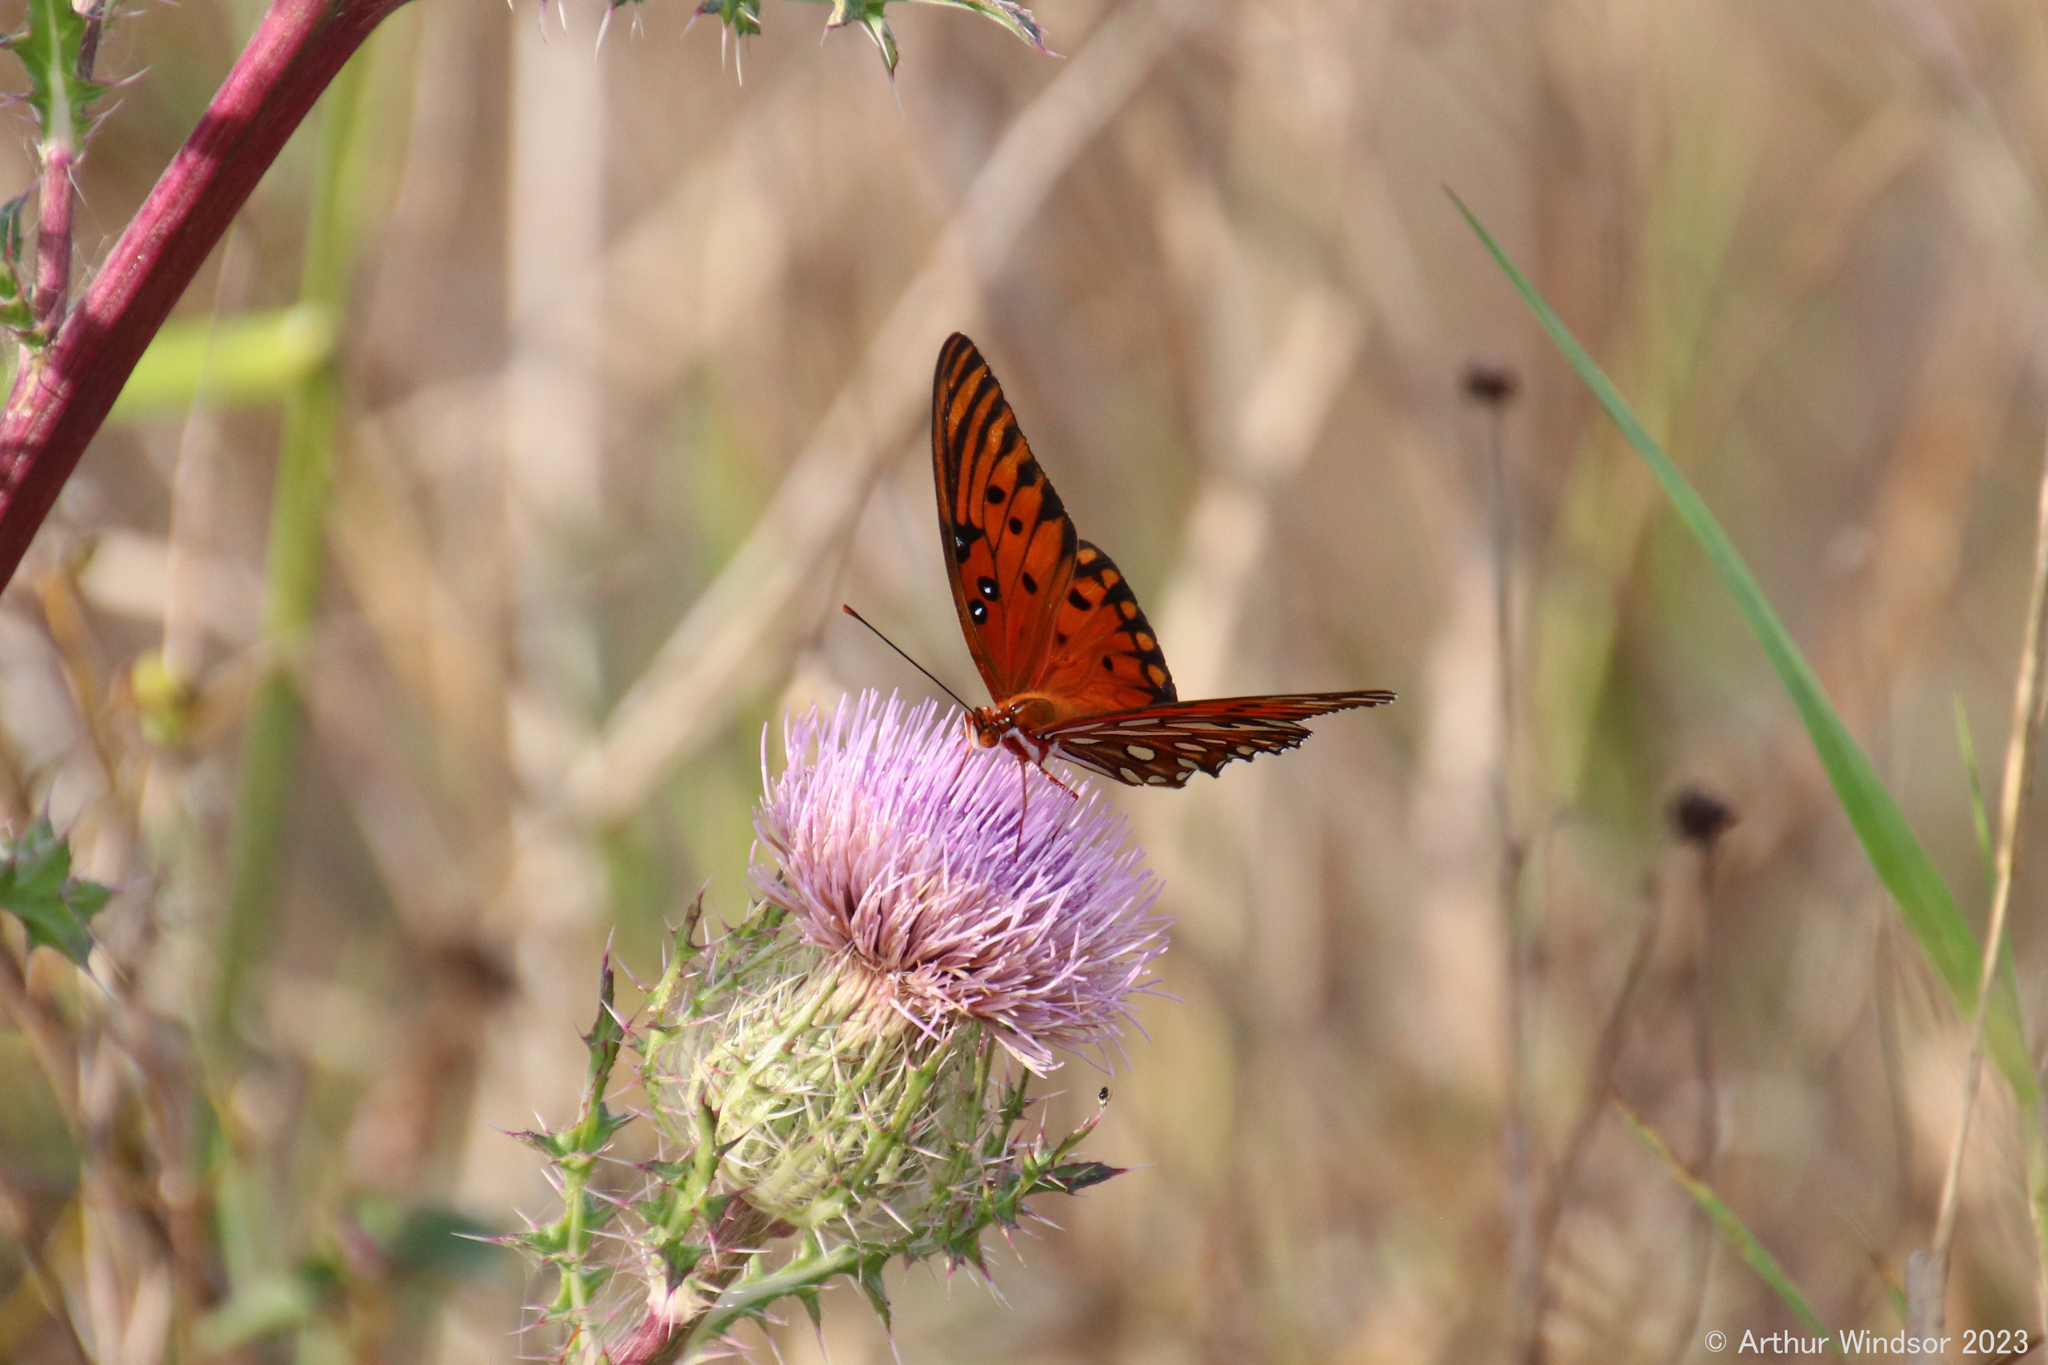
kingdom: Animalia
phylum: Arthropoda
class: Insecta
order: Lepidoptera
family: Nymphalidae
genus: Dione
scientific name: Dione vanillae
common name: Gulf fritillary
